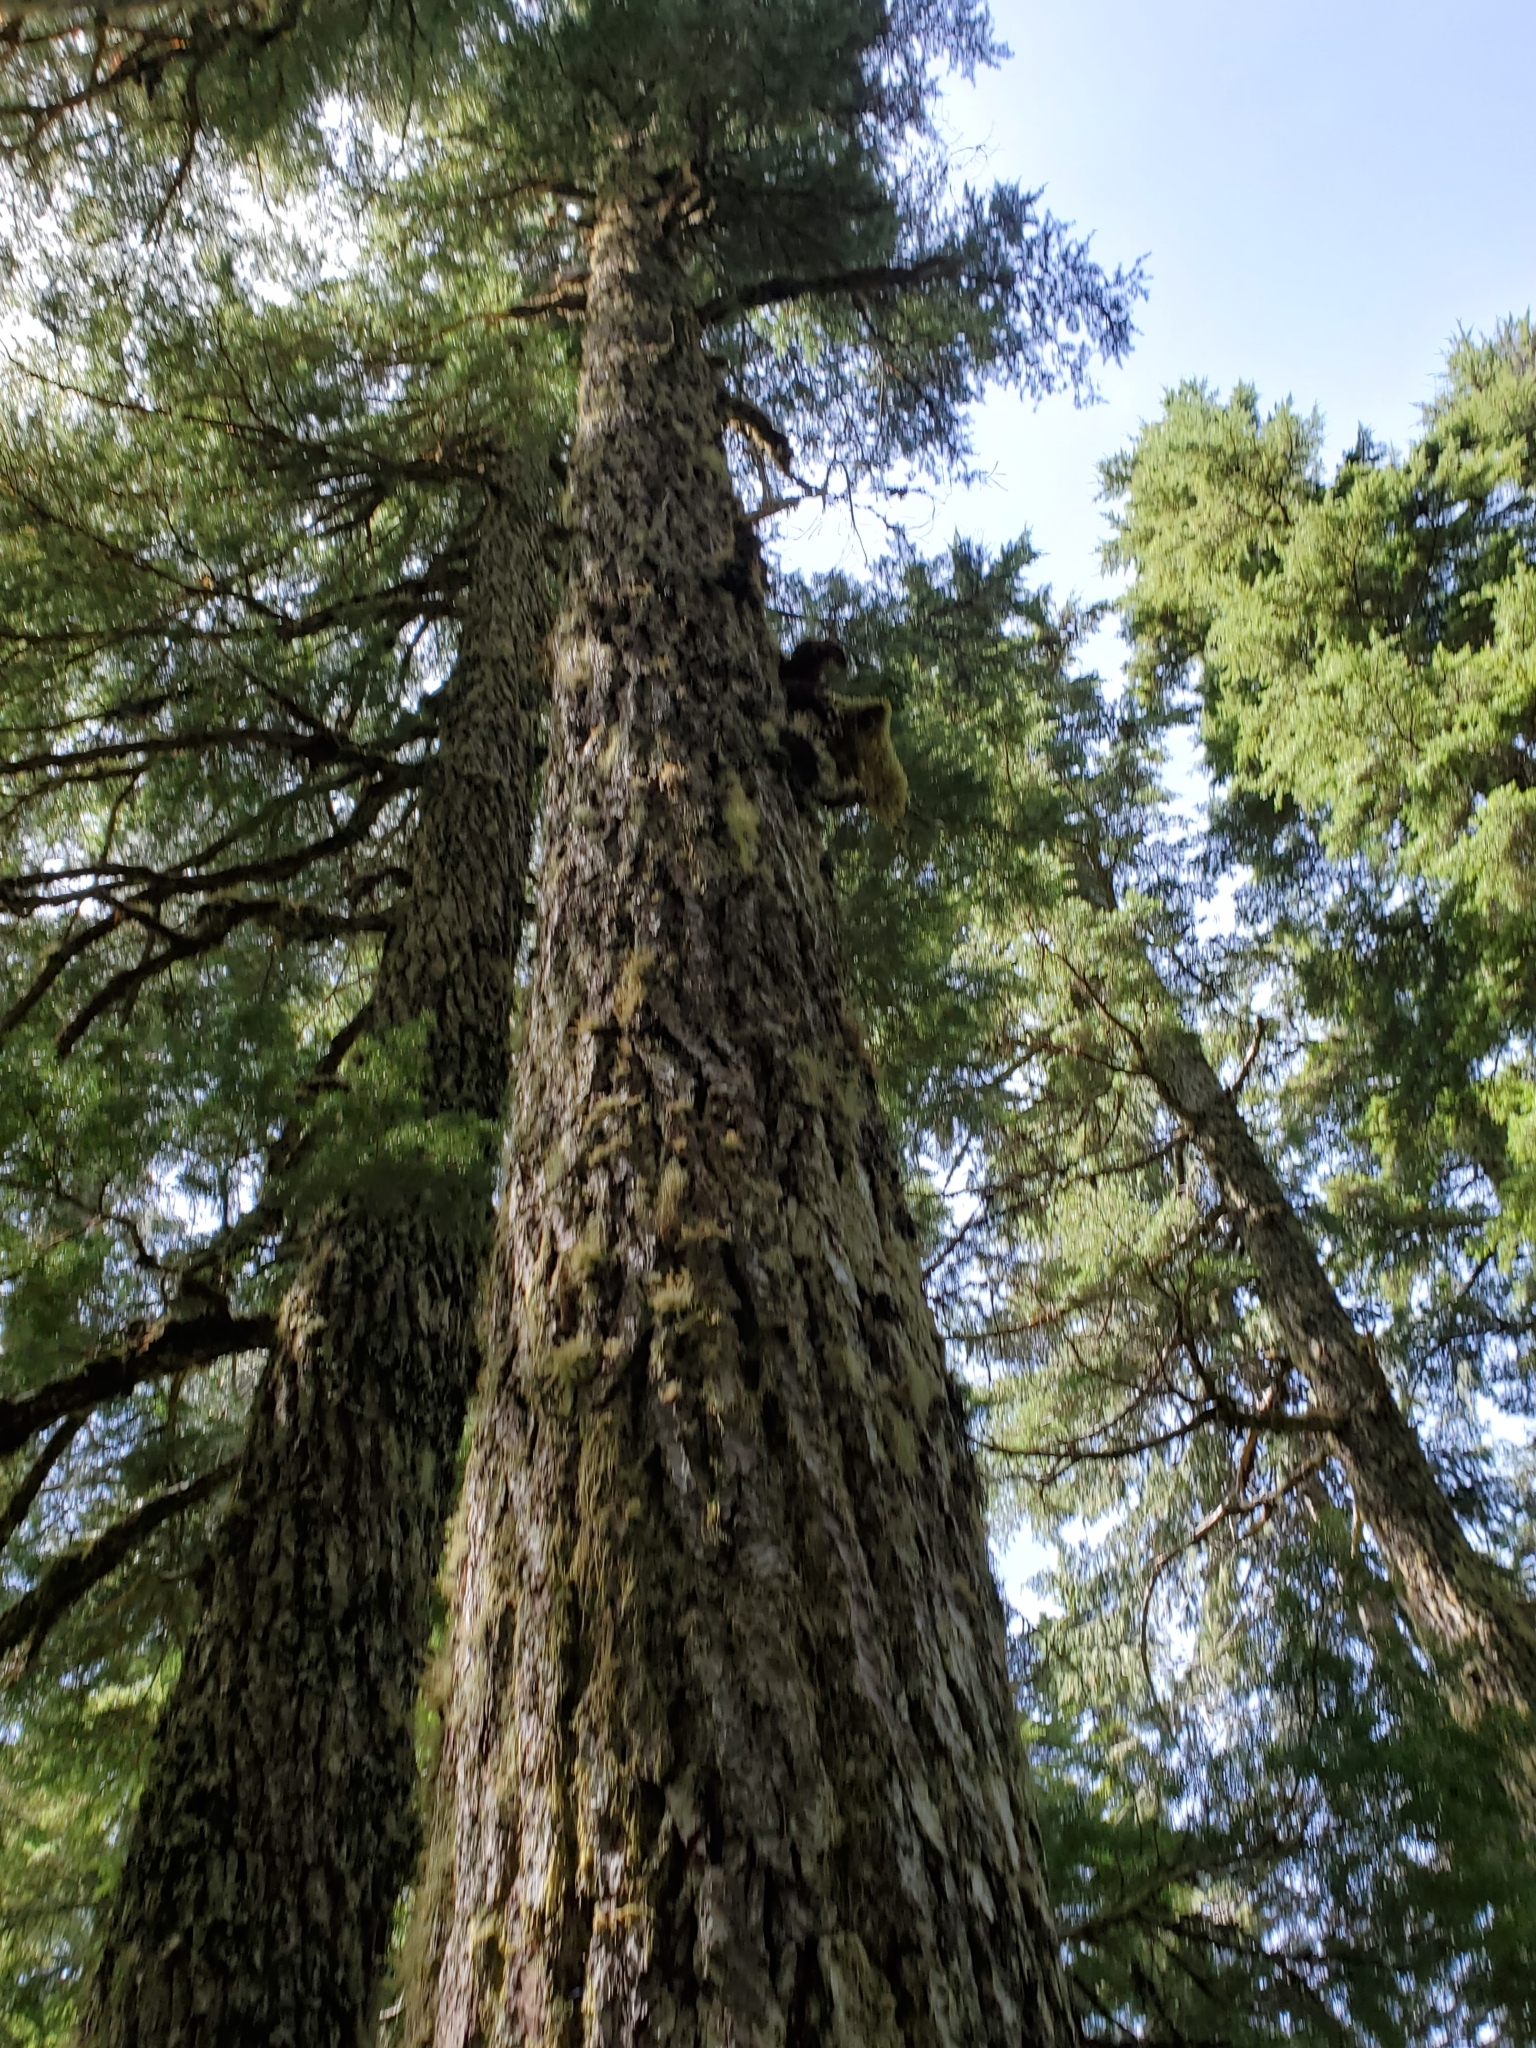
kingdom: Plantae
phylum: Tracheophyta
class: Pinopsida
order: Pinales
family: Pinaceae
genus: Tsuga
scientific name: Tsuga mertensiana
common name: Mountain hemlock
